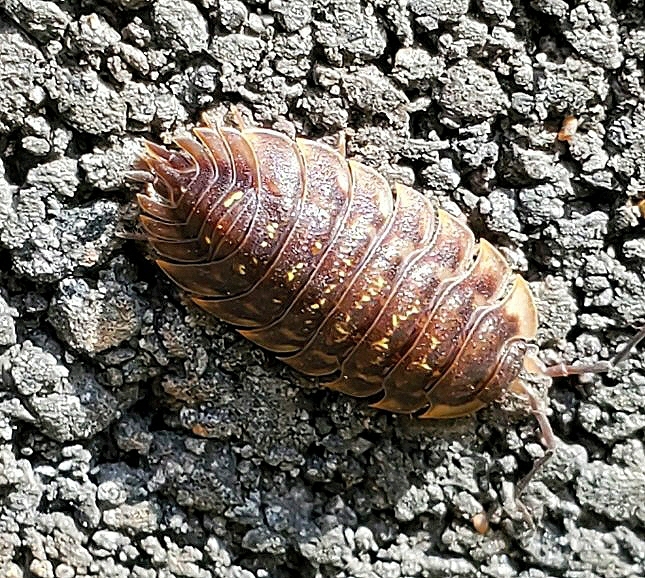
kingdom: Animalia
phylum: Arthropoda
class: Malacostraca
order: Isopoda
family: Oniscidae
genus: Oniscus
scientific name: Oniscus asellus
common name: Common shiny woodlouse
